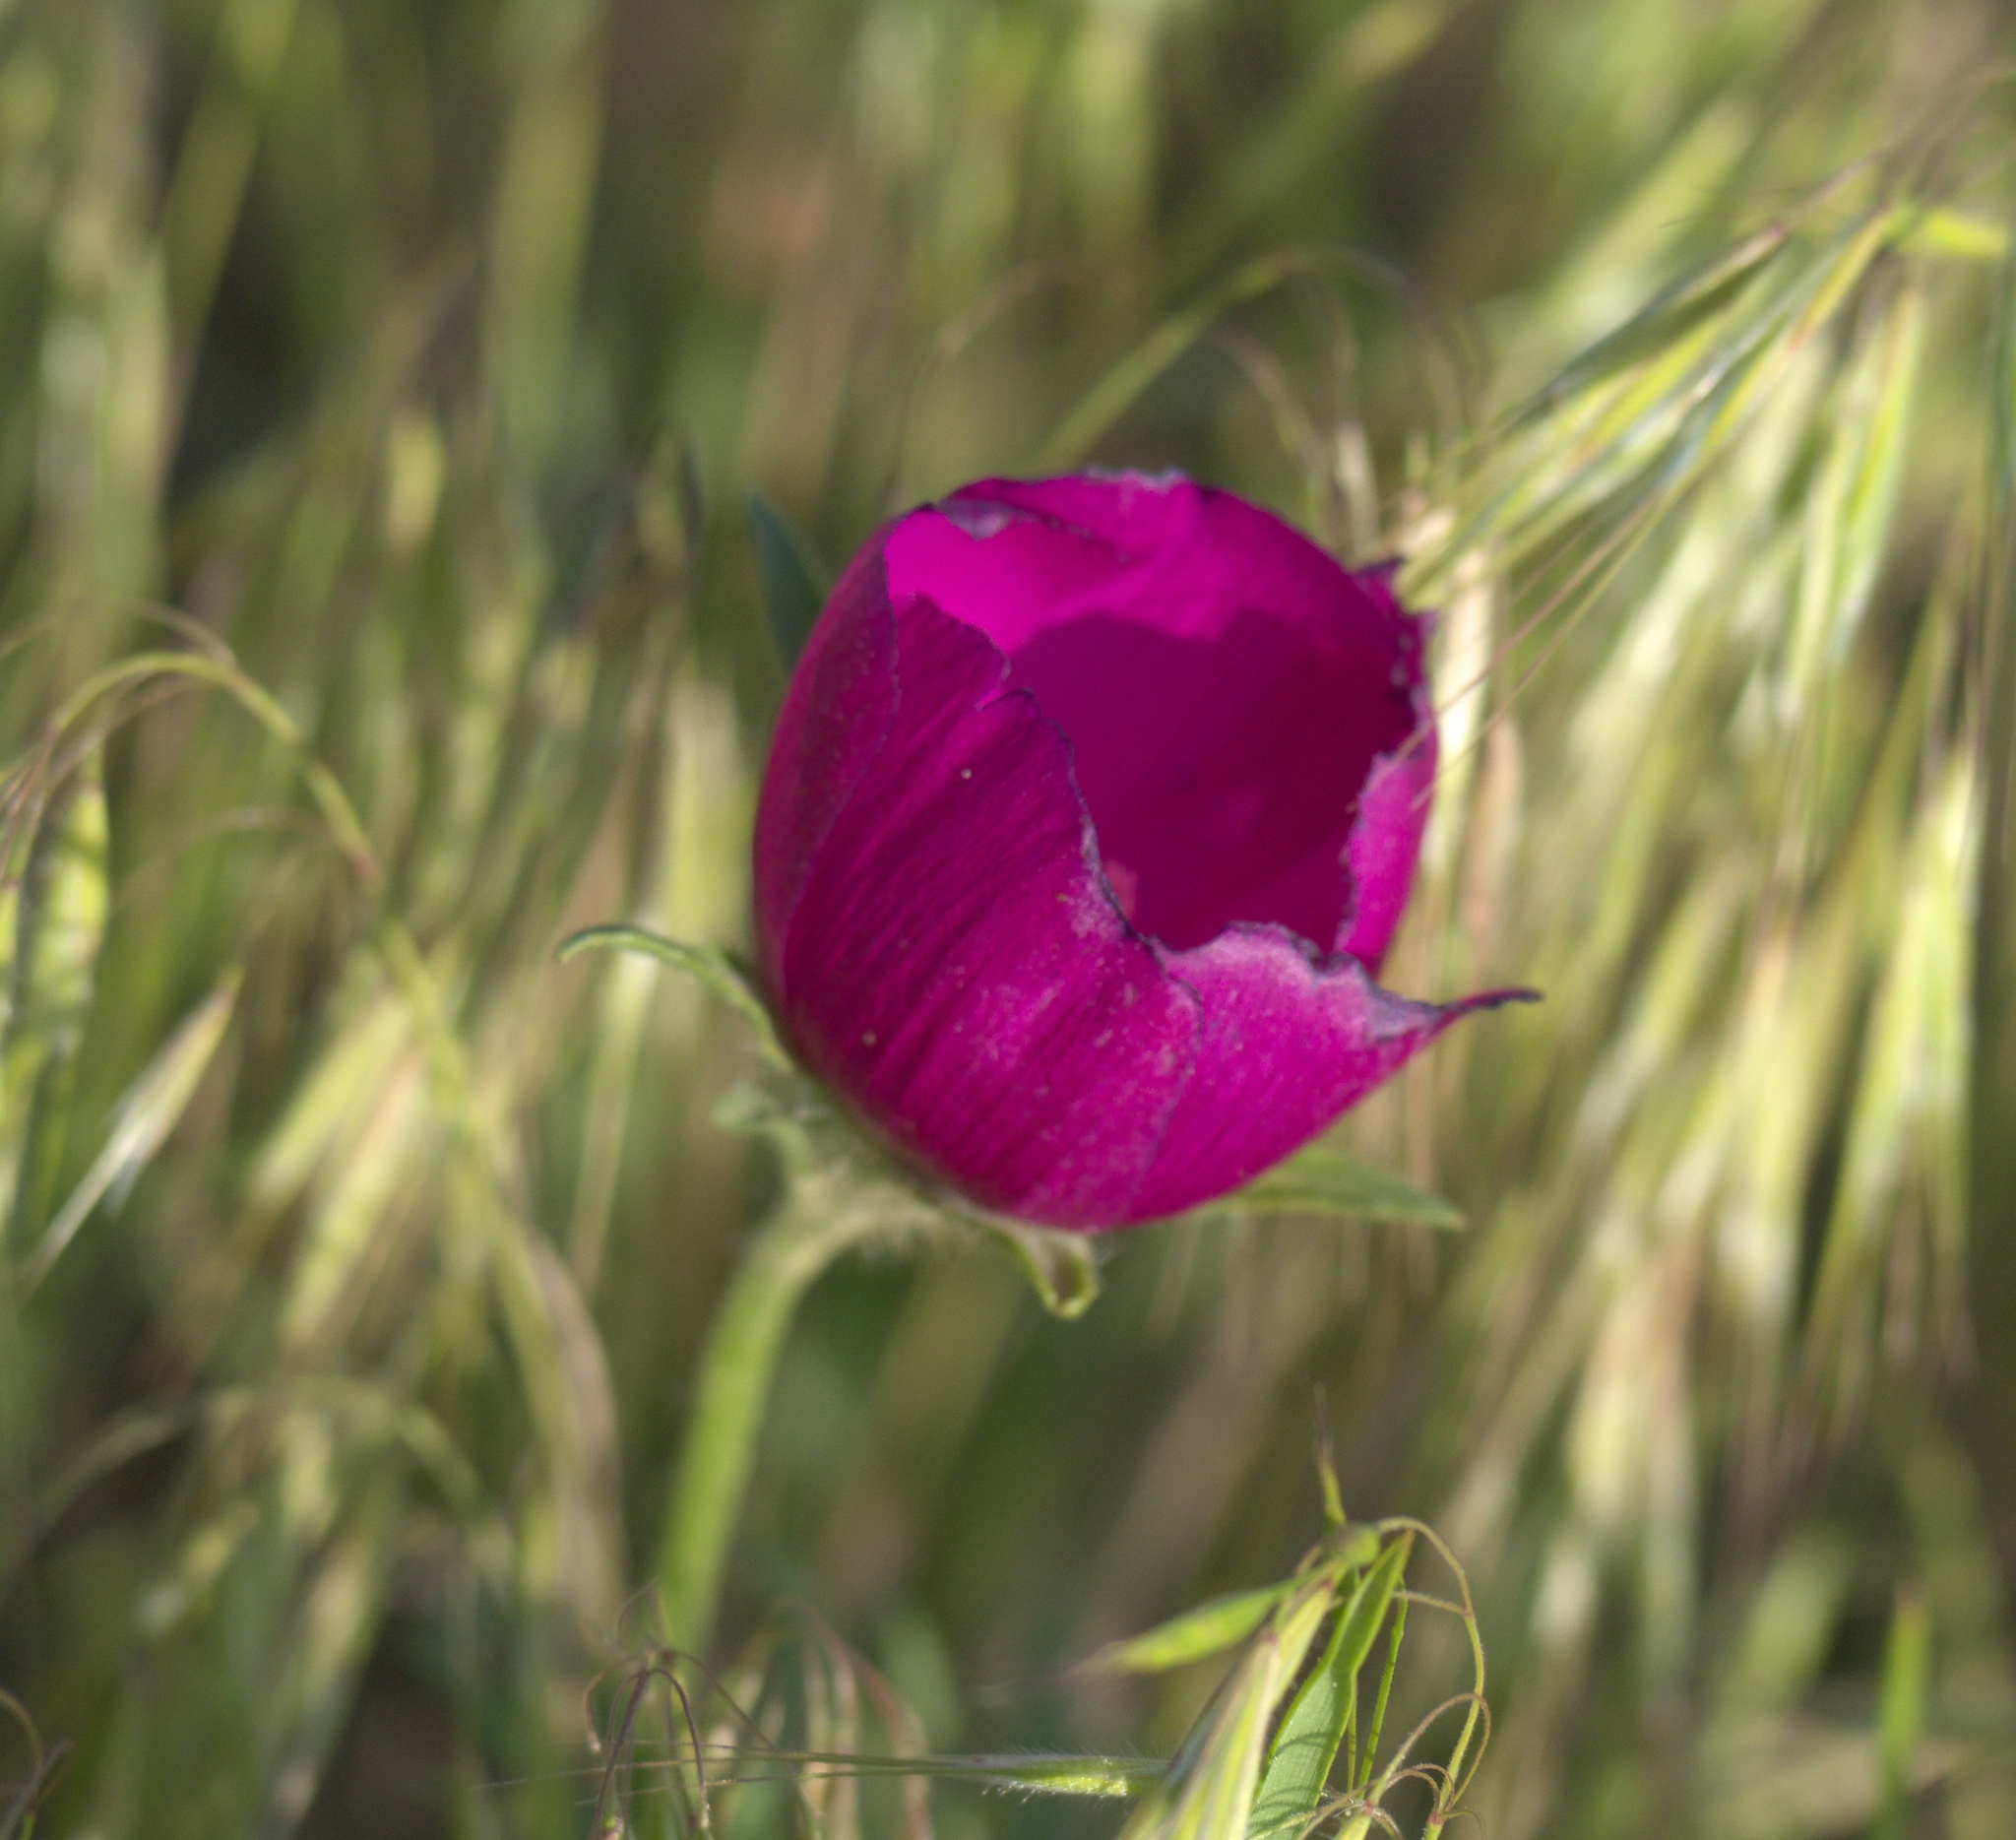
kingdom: Plantae
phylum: Tracheophyta
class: Magnoliopsida
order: Malvales
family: Malvaceae
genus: Callirhoe
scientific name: Callirhoe involucrata
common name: Purple poppy-mallow
